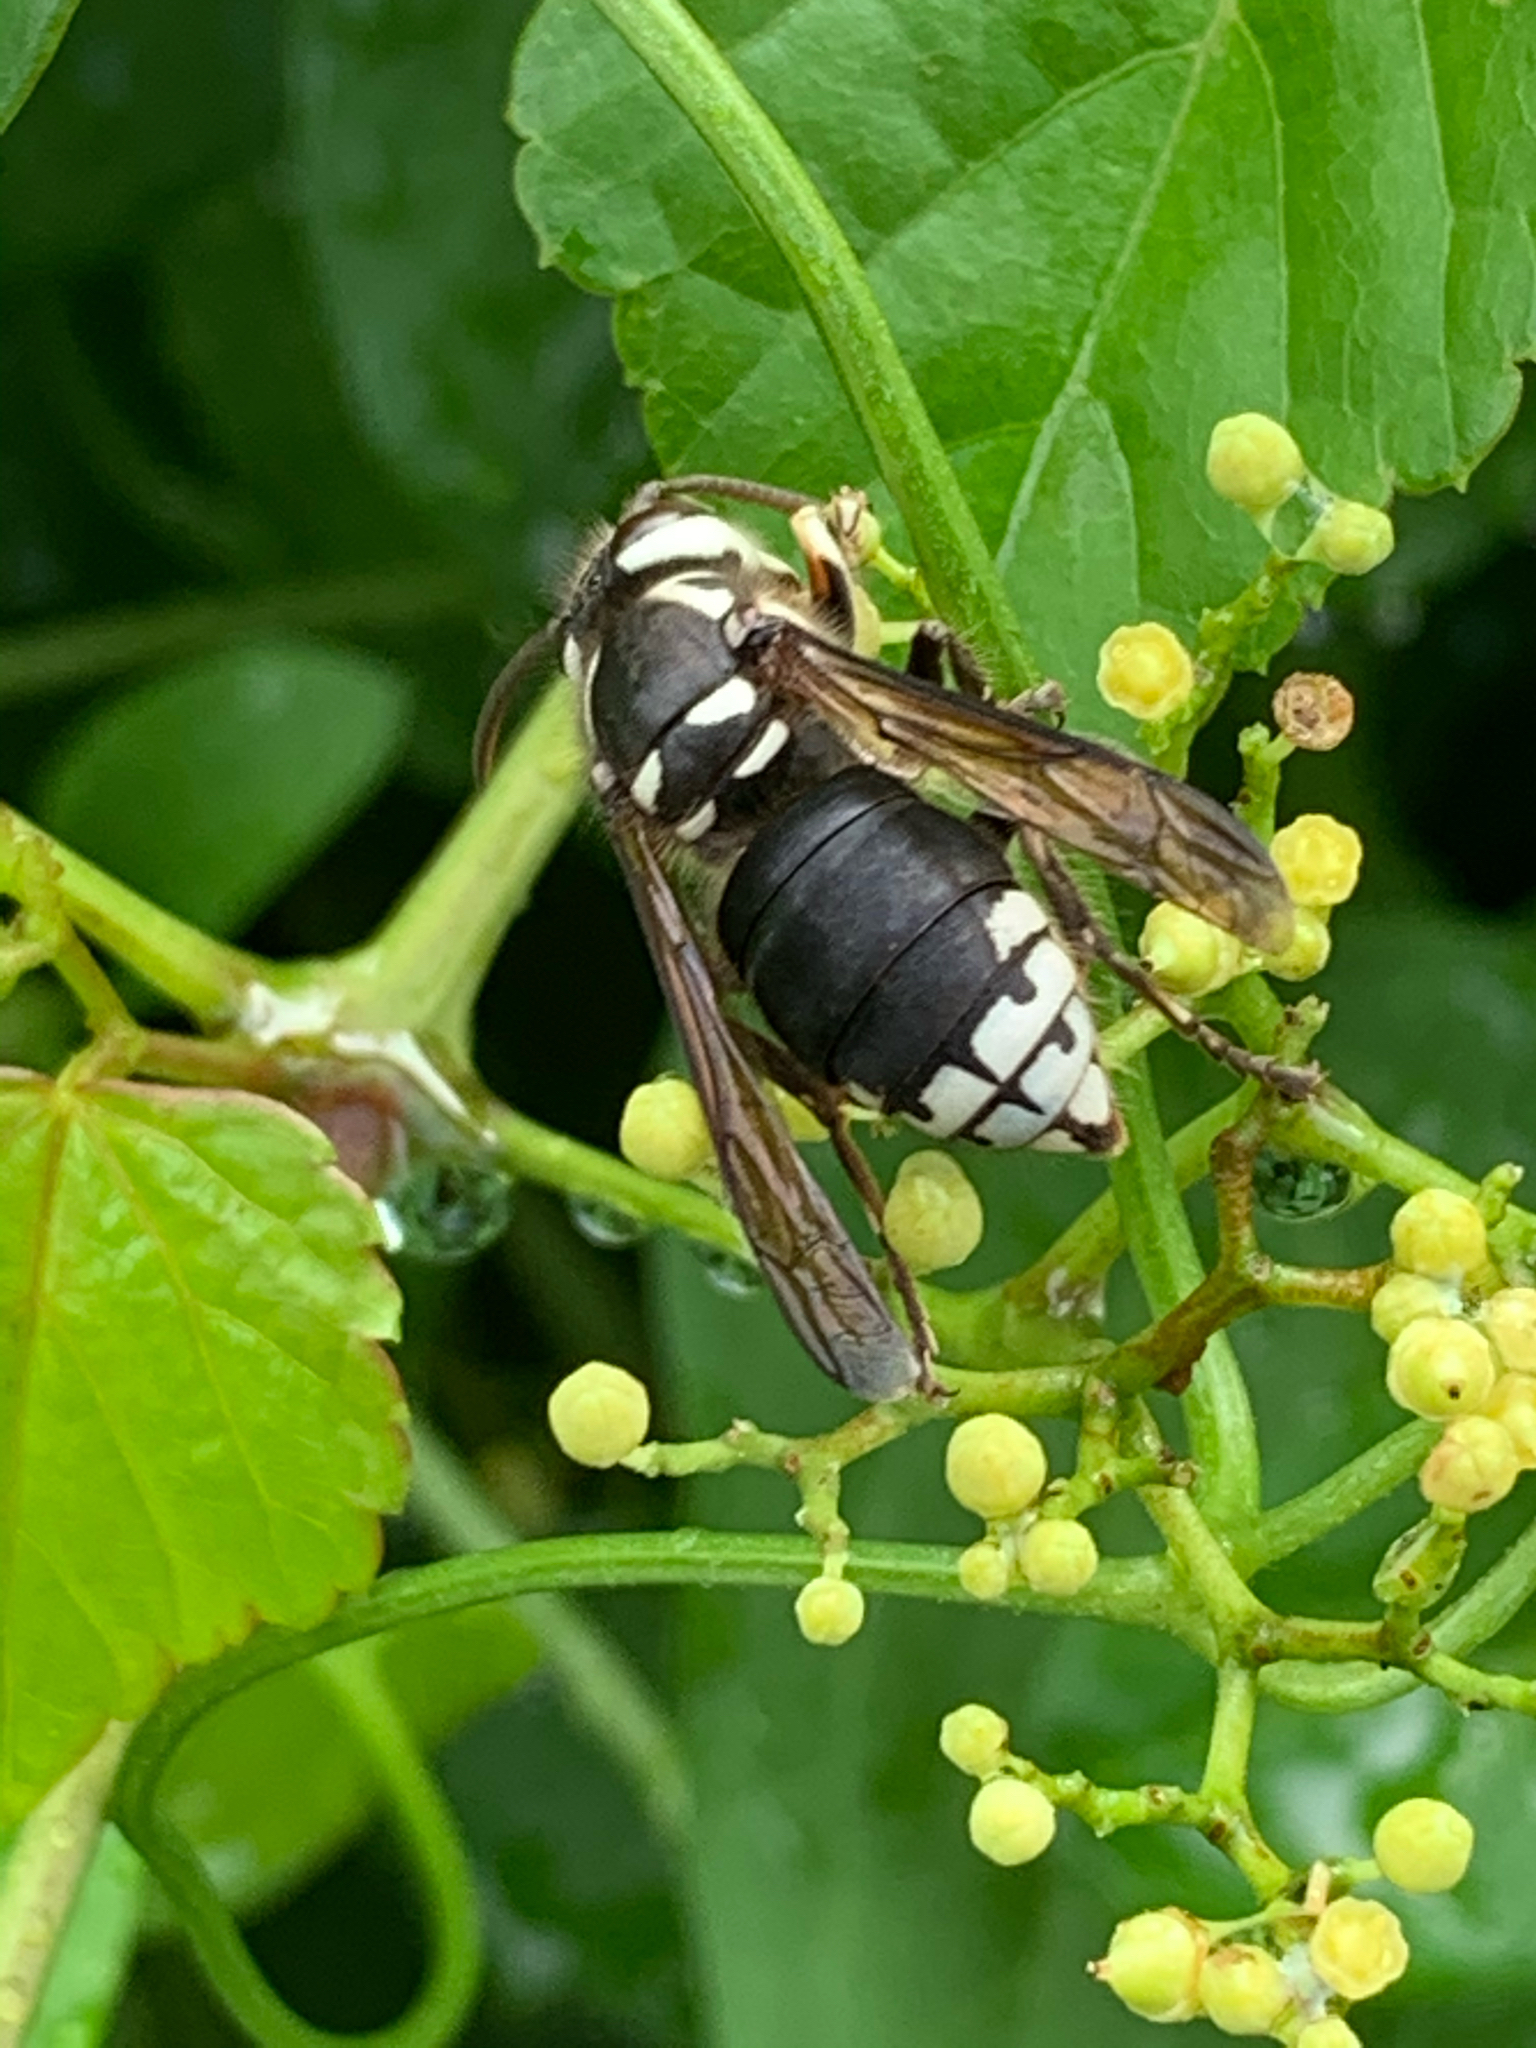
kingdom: Animalia
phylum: Arthropoda
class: Insecta
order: Hymenoptera
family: Vespidae
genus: Dolichovespula
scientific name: Dolichovespula maculata
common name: Bald-faced hornet
